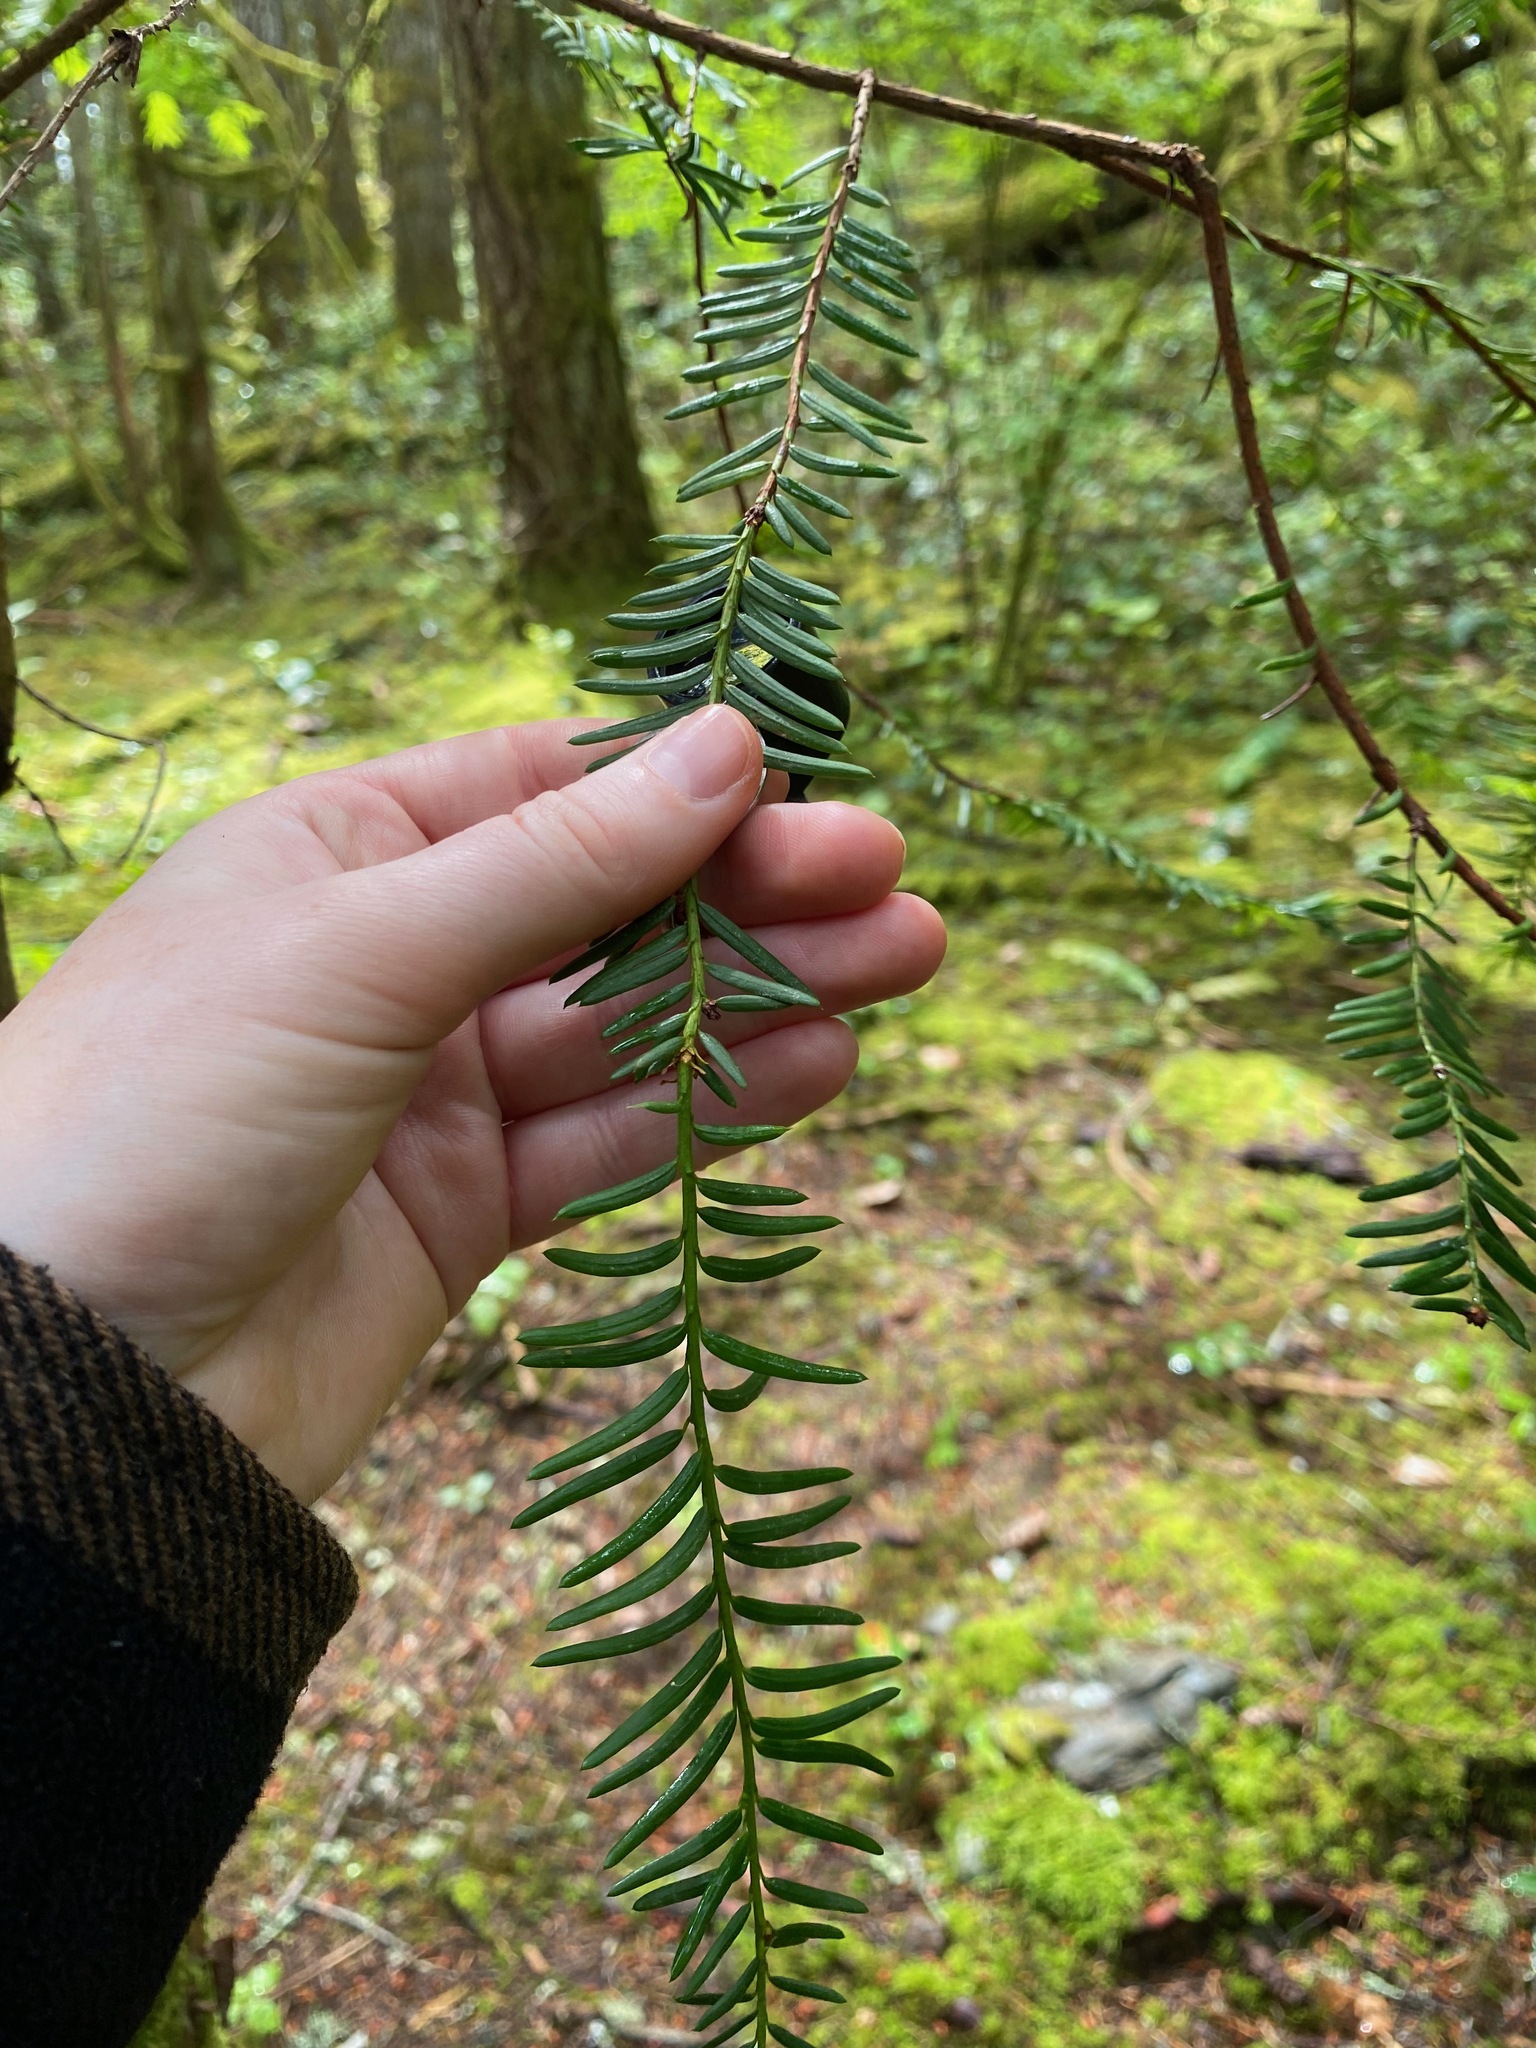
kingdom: Plantae
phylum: Tracheophyta
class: Pinopsida
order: Pinales
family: Taxaceae
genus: Taxus
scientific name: Taxus brevifolia
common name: Pacific yew
